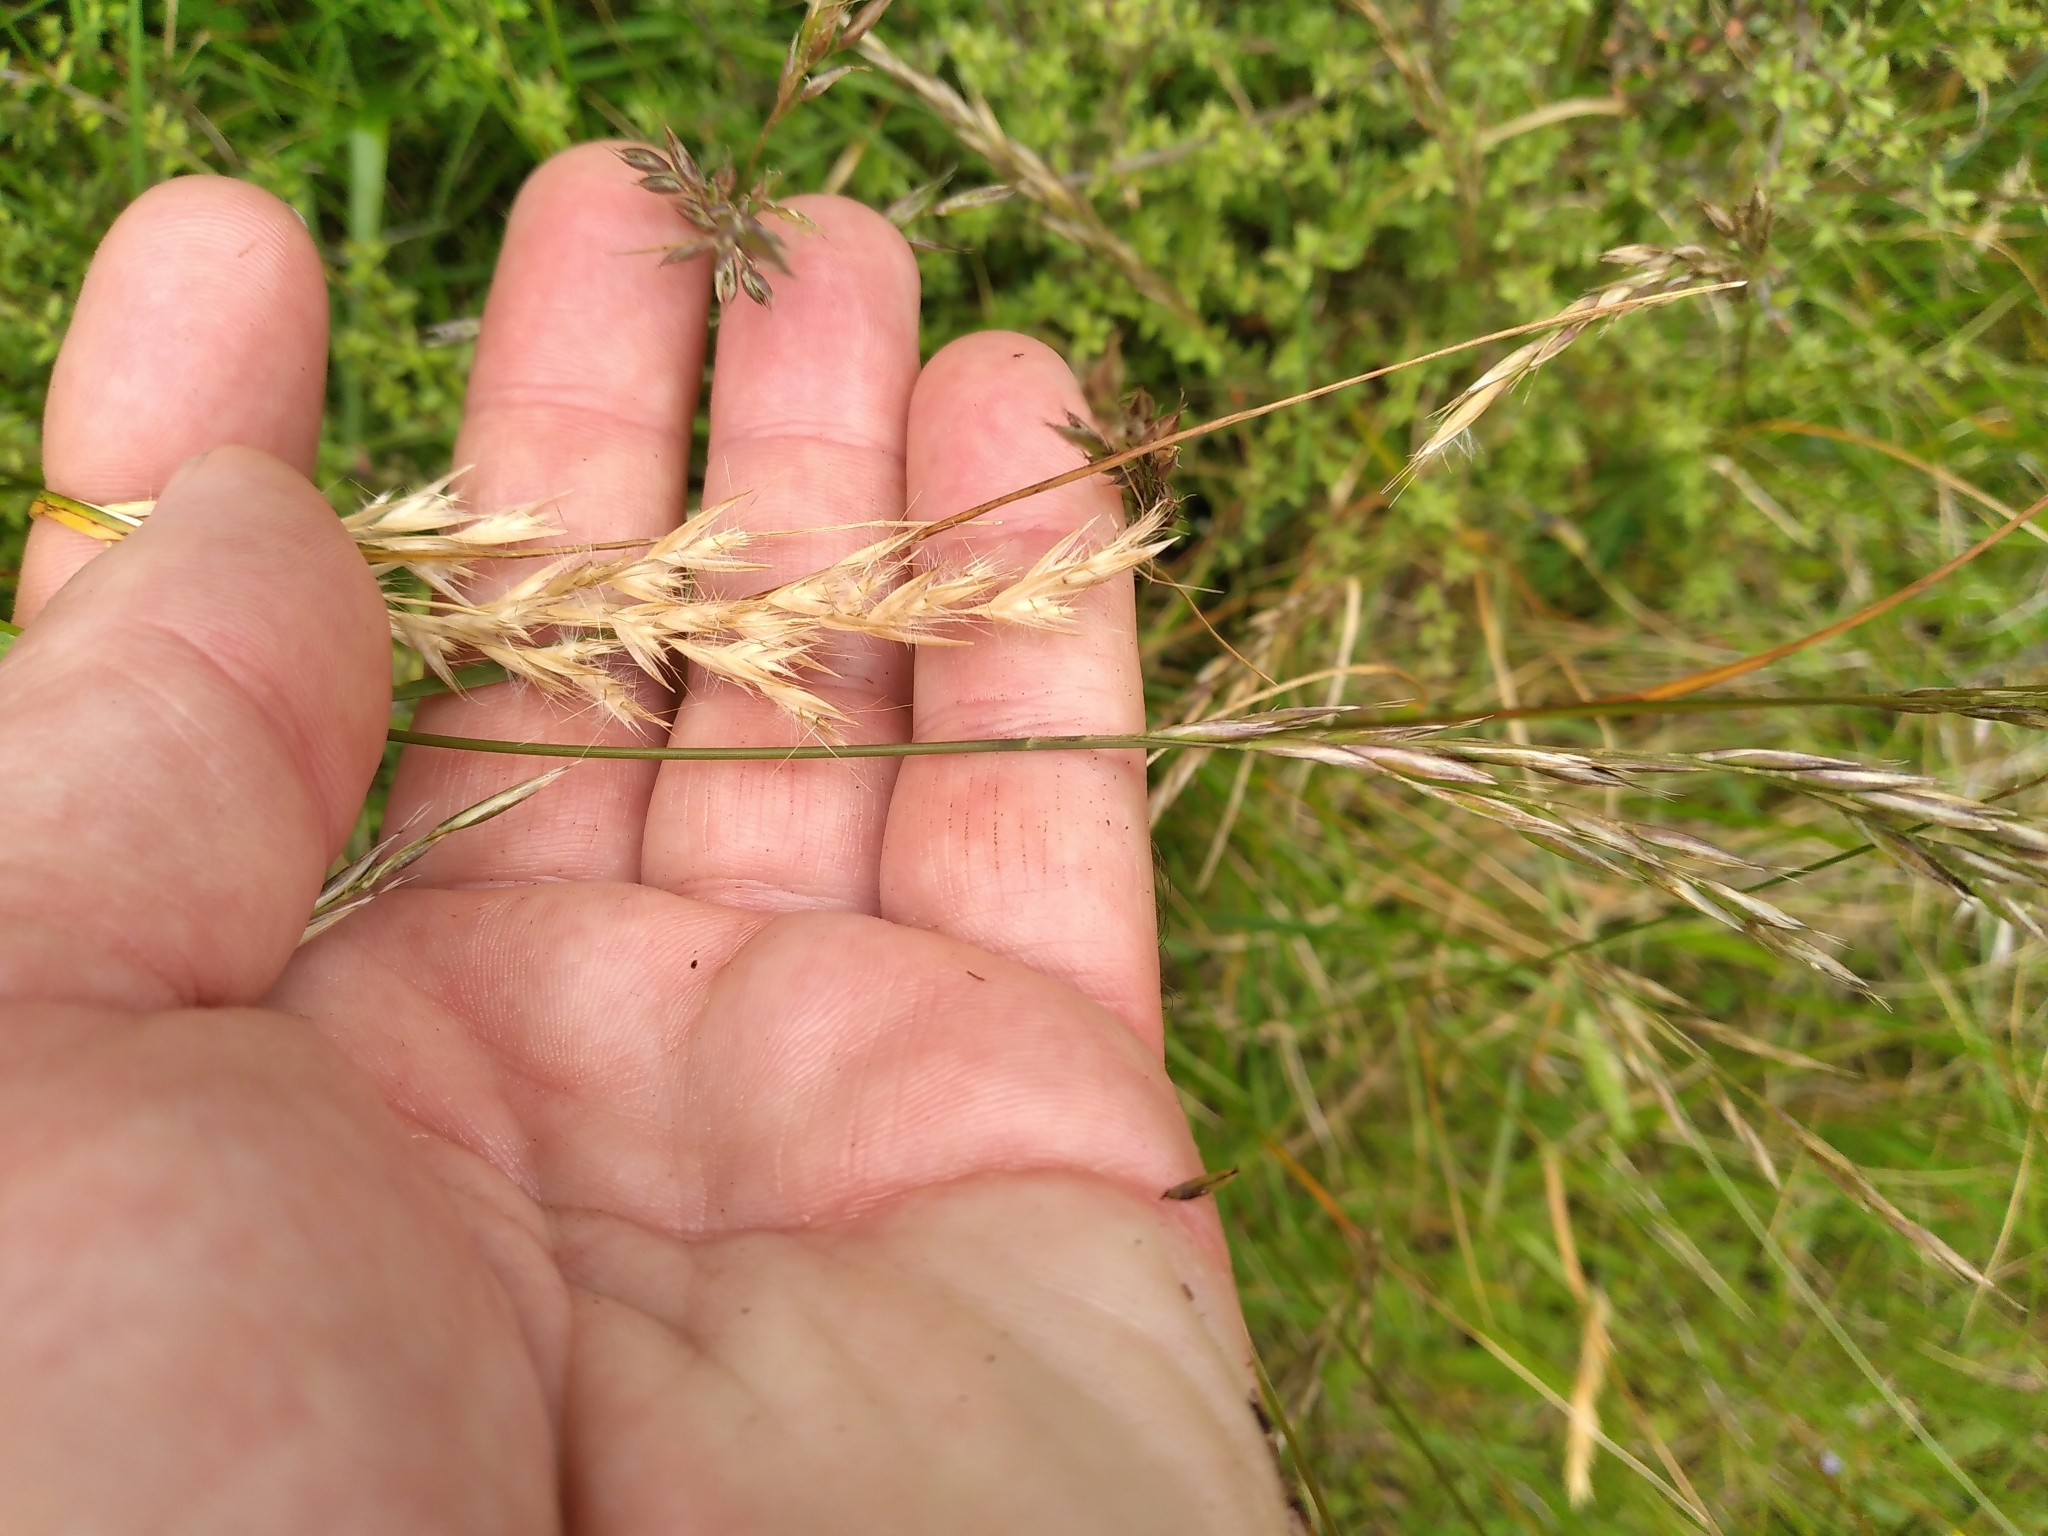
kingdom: Plantae
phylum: Tracheophyta
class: Liliopsida
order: Poales
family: Poaceae
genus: Rytidosperma
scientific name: Rytidosperma unarede
